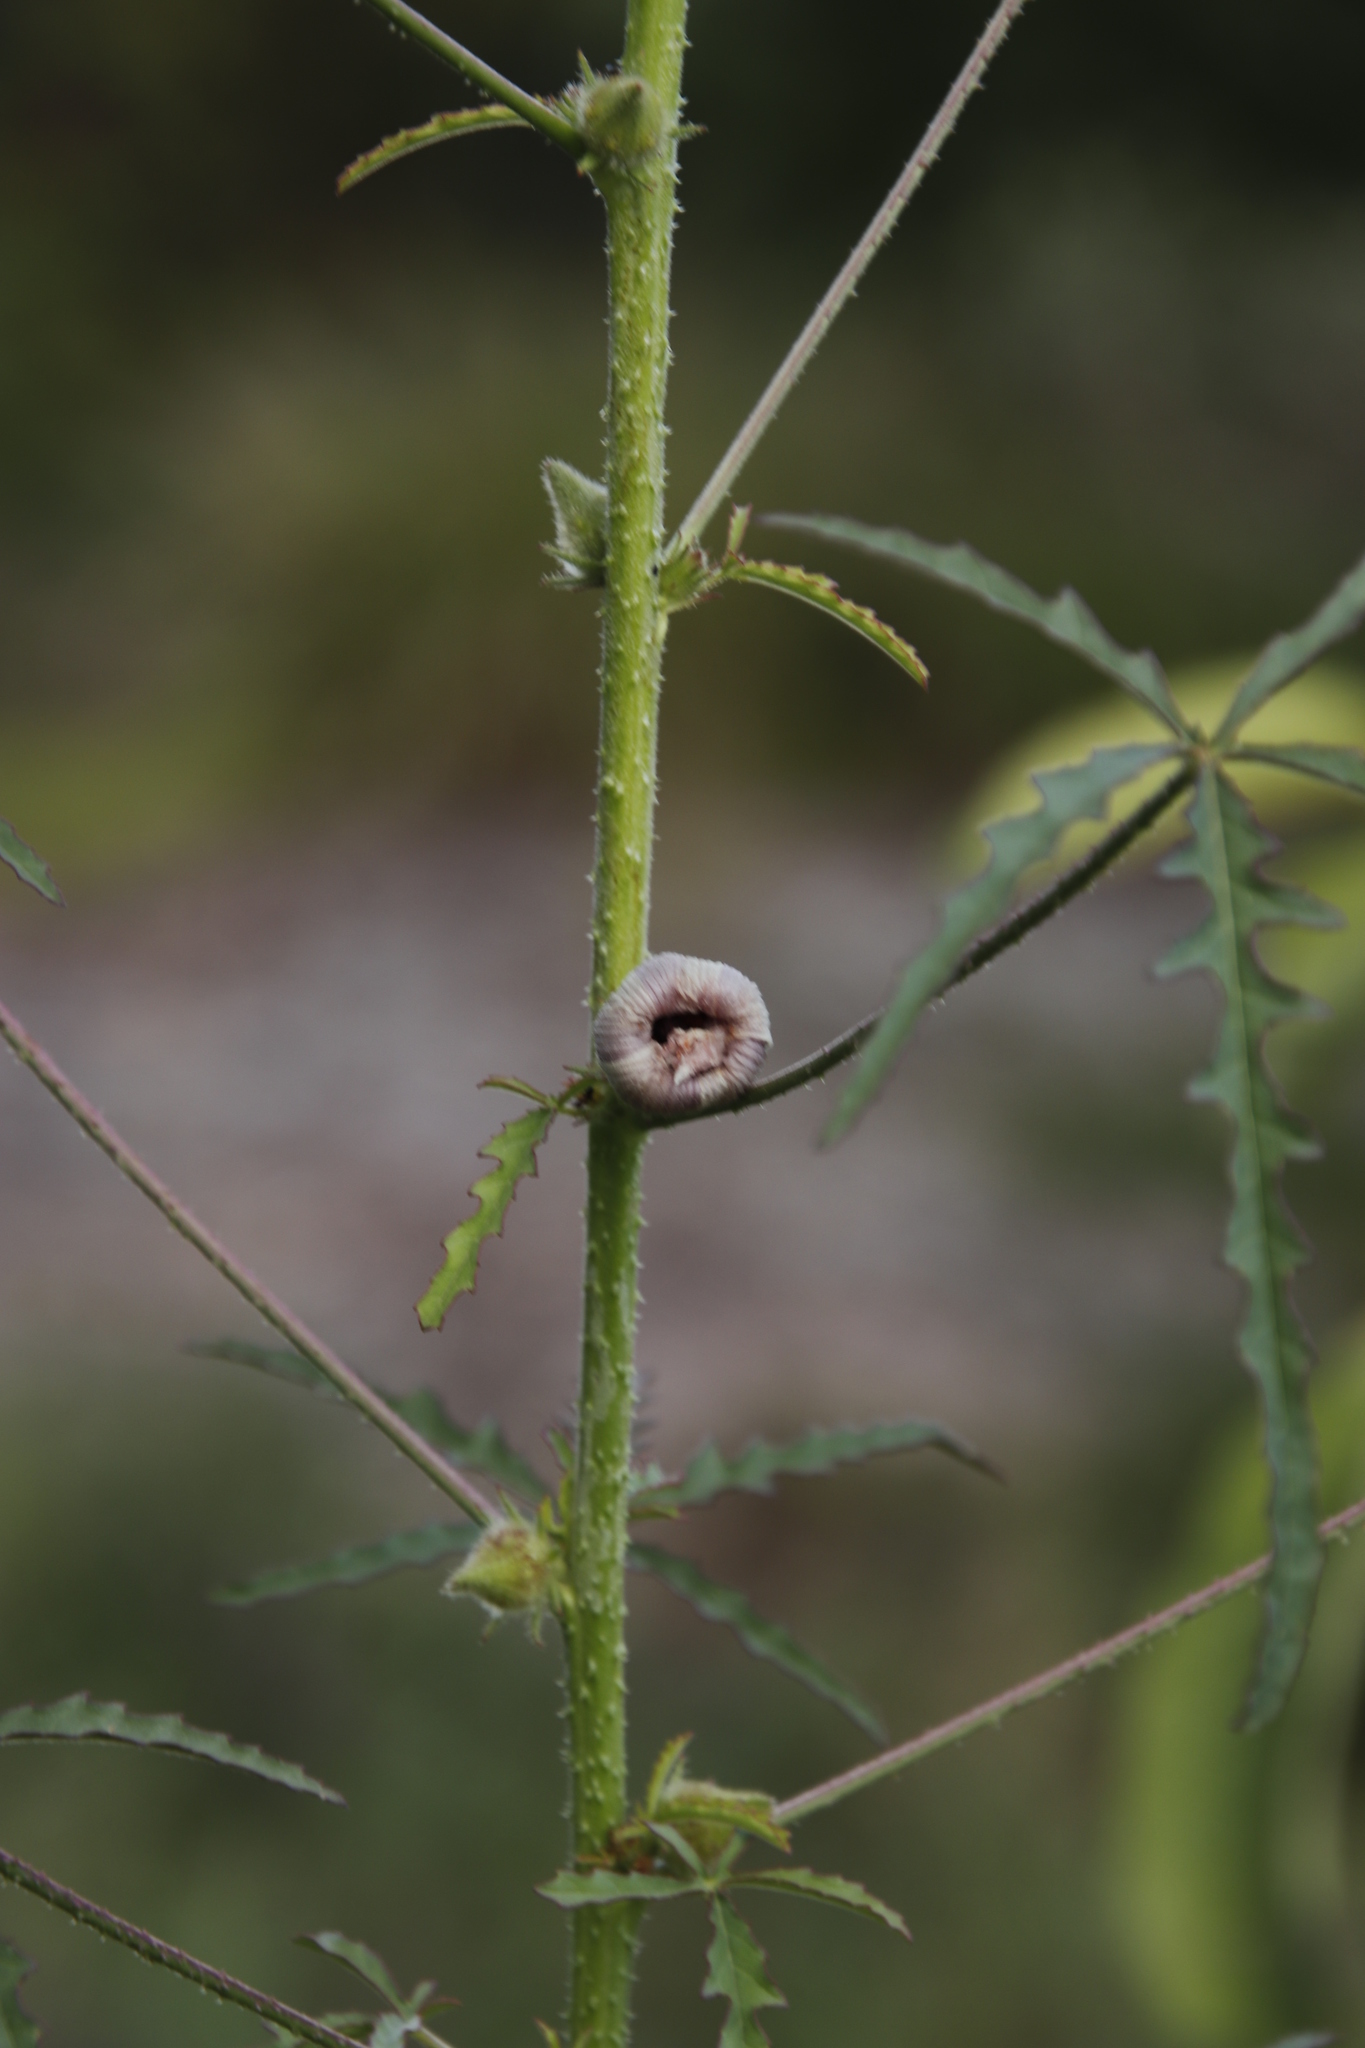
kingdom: Plantae
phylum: Tracheophyta
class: Magnoliopsida
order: Malvales
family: Malvaceae
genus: Hibiscus
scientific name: Hibiscus cannabinus
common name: Brown indianhemp
